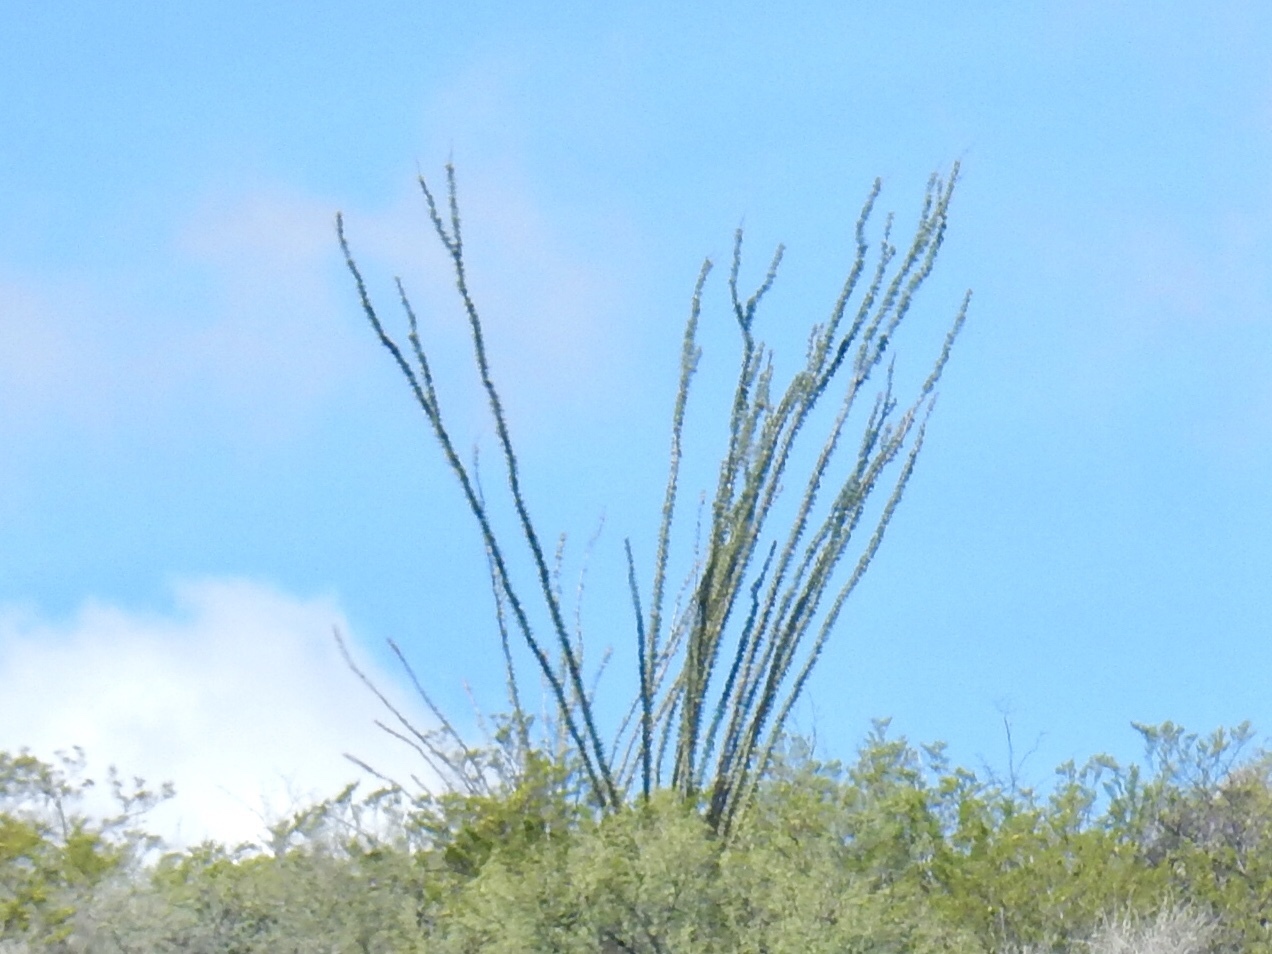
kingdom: Plantae
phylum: Tracheophyta
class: Magnoliopsida
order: Ericales
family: Fouquieriaceae
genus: Fouquieria
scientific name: Fouquieria splendens
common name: Vine-cactus
